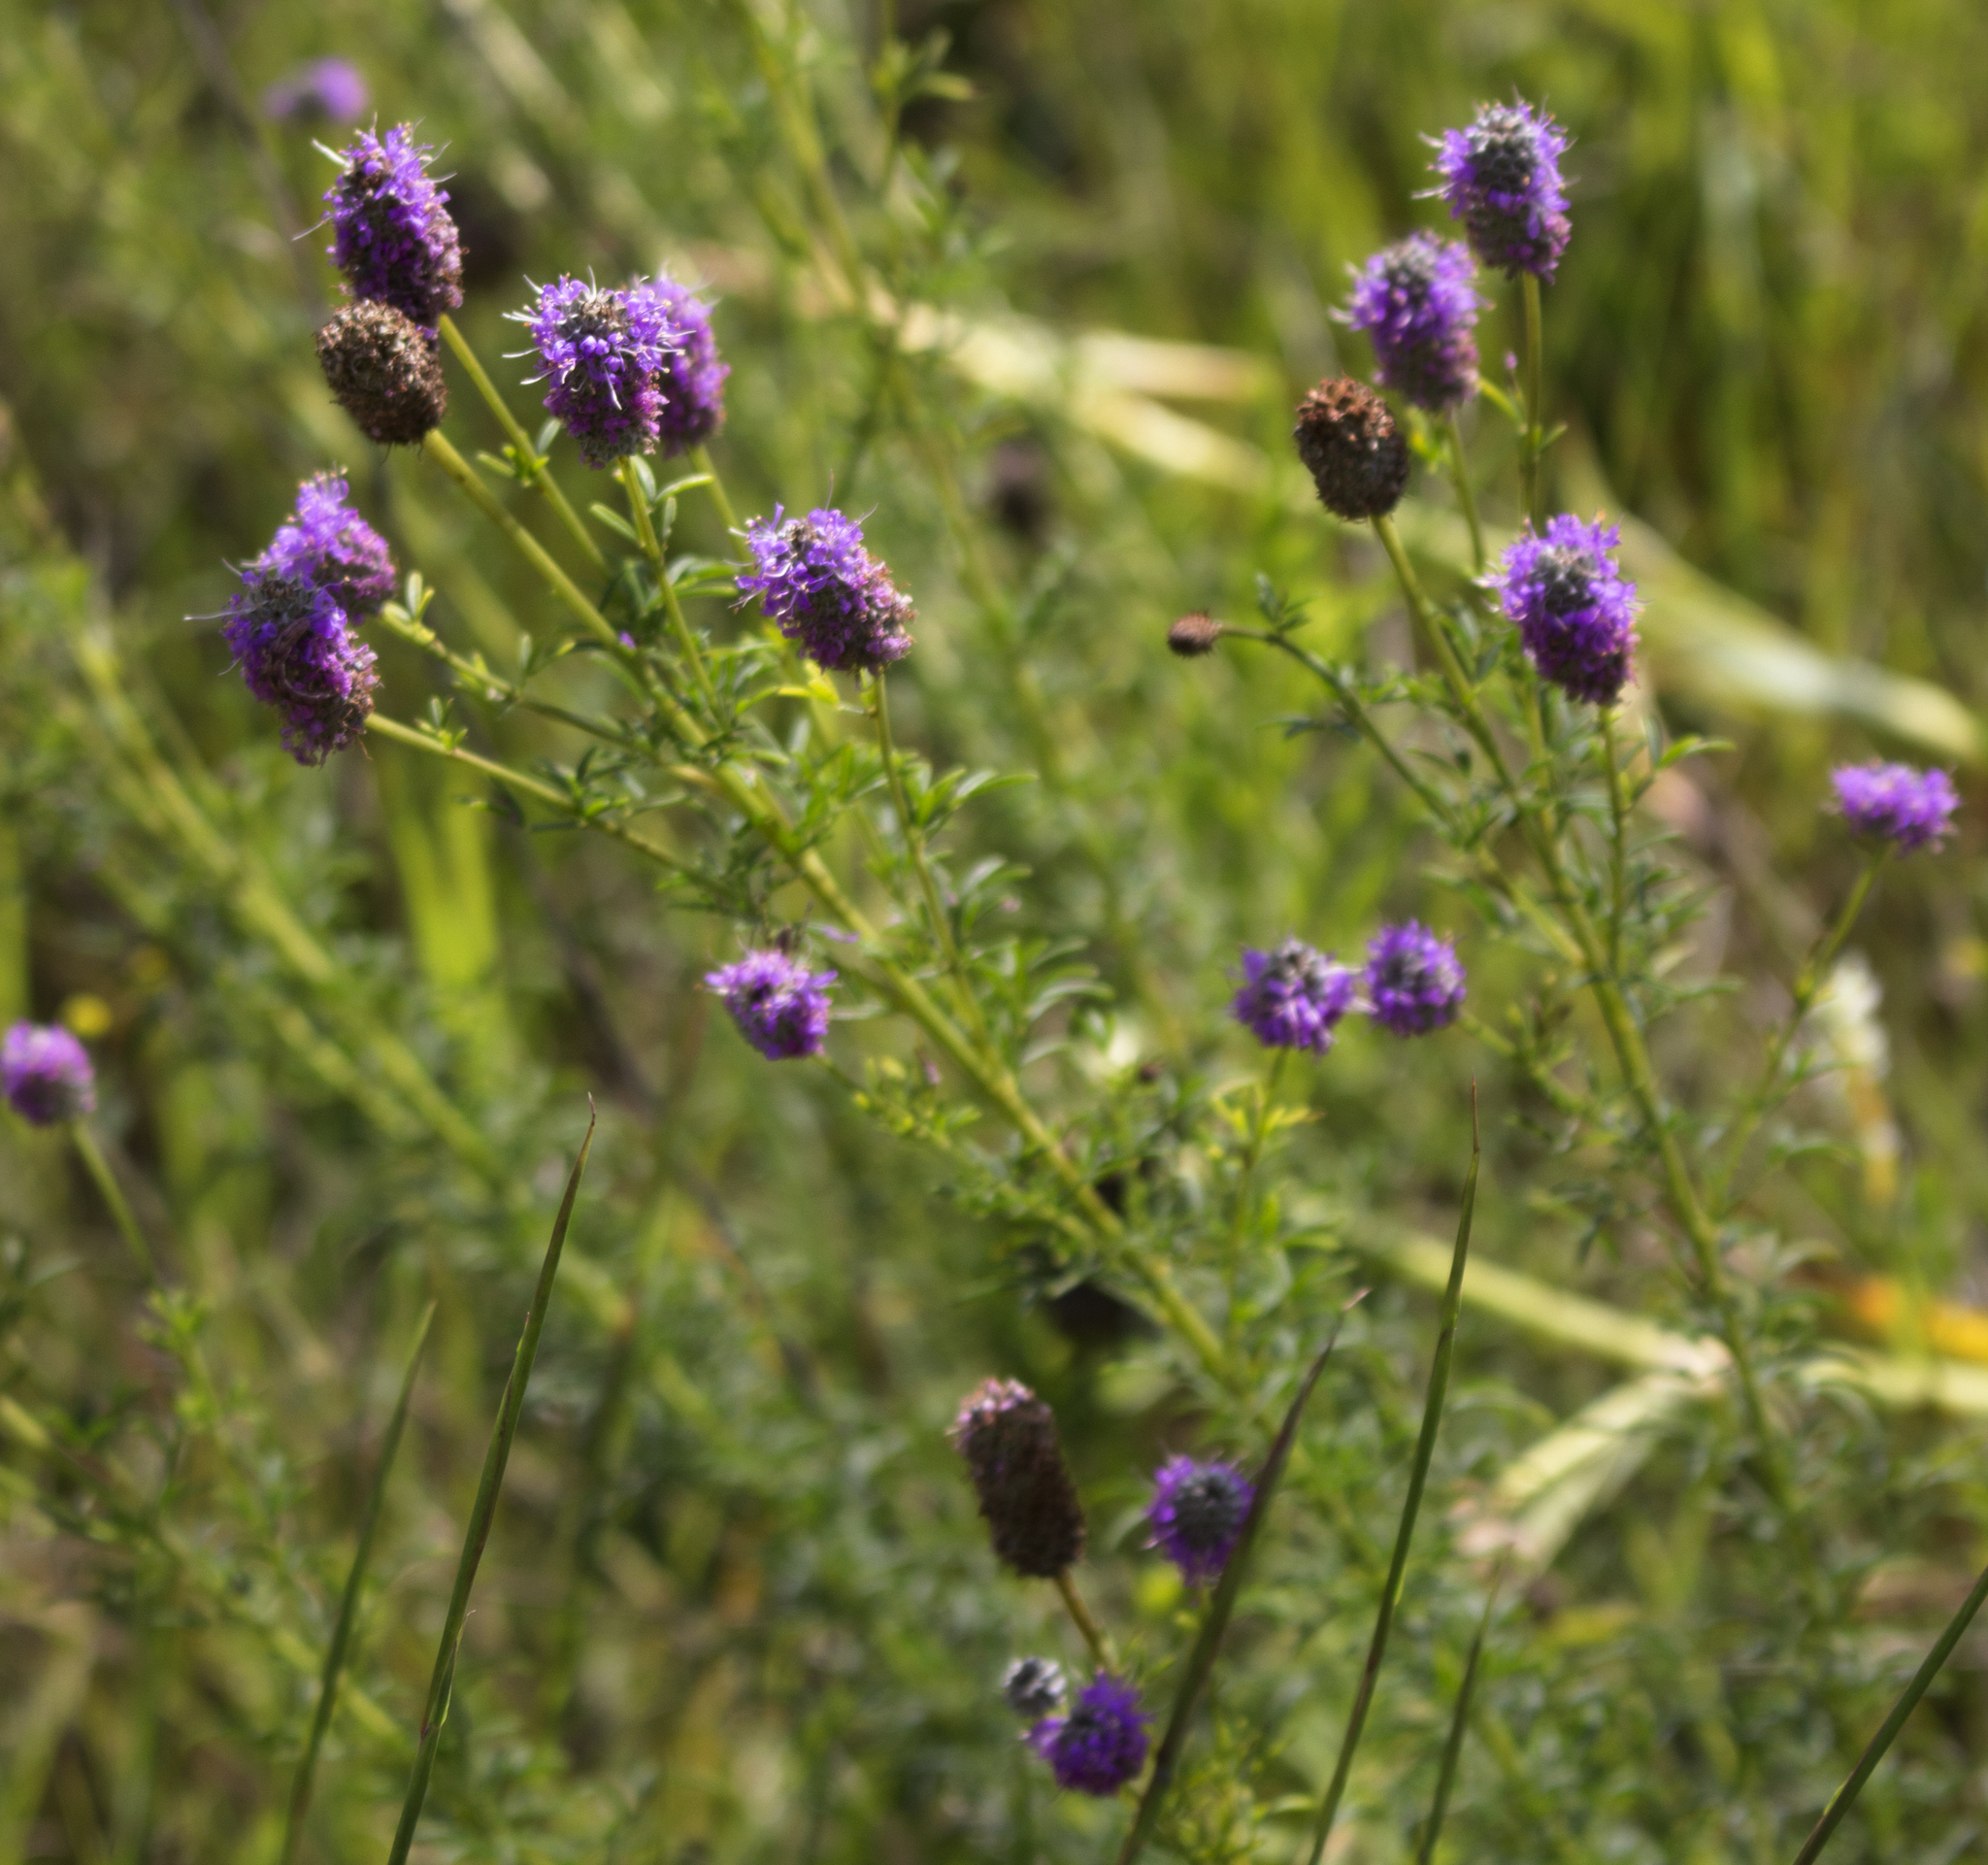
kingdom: Plantae
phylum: Tracheophyta
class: Magnoliopsida
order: Fabales
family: Fabaceae
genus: Dalea
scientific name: Dalea purpurea
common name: Purple prairie-clover
